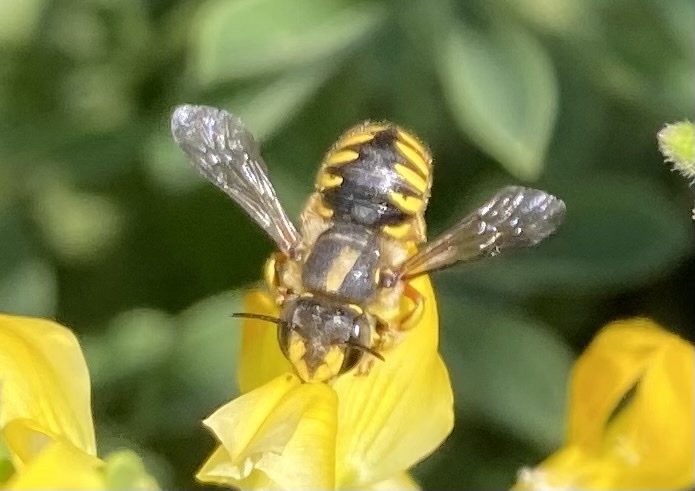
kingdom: Animalia
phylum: Arthropoda
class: Insecta
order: Hymenoptera
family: Megachilidae
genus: Anthidium
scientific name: Anthidium manicatum
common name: Wool carder bee
